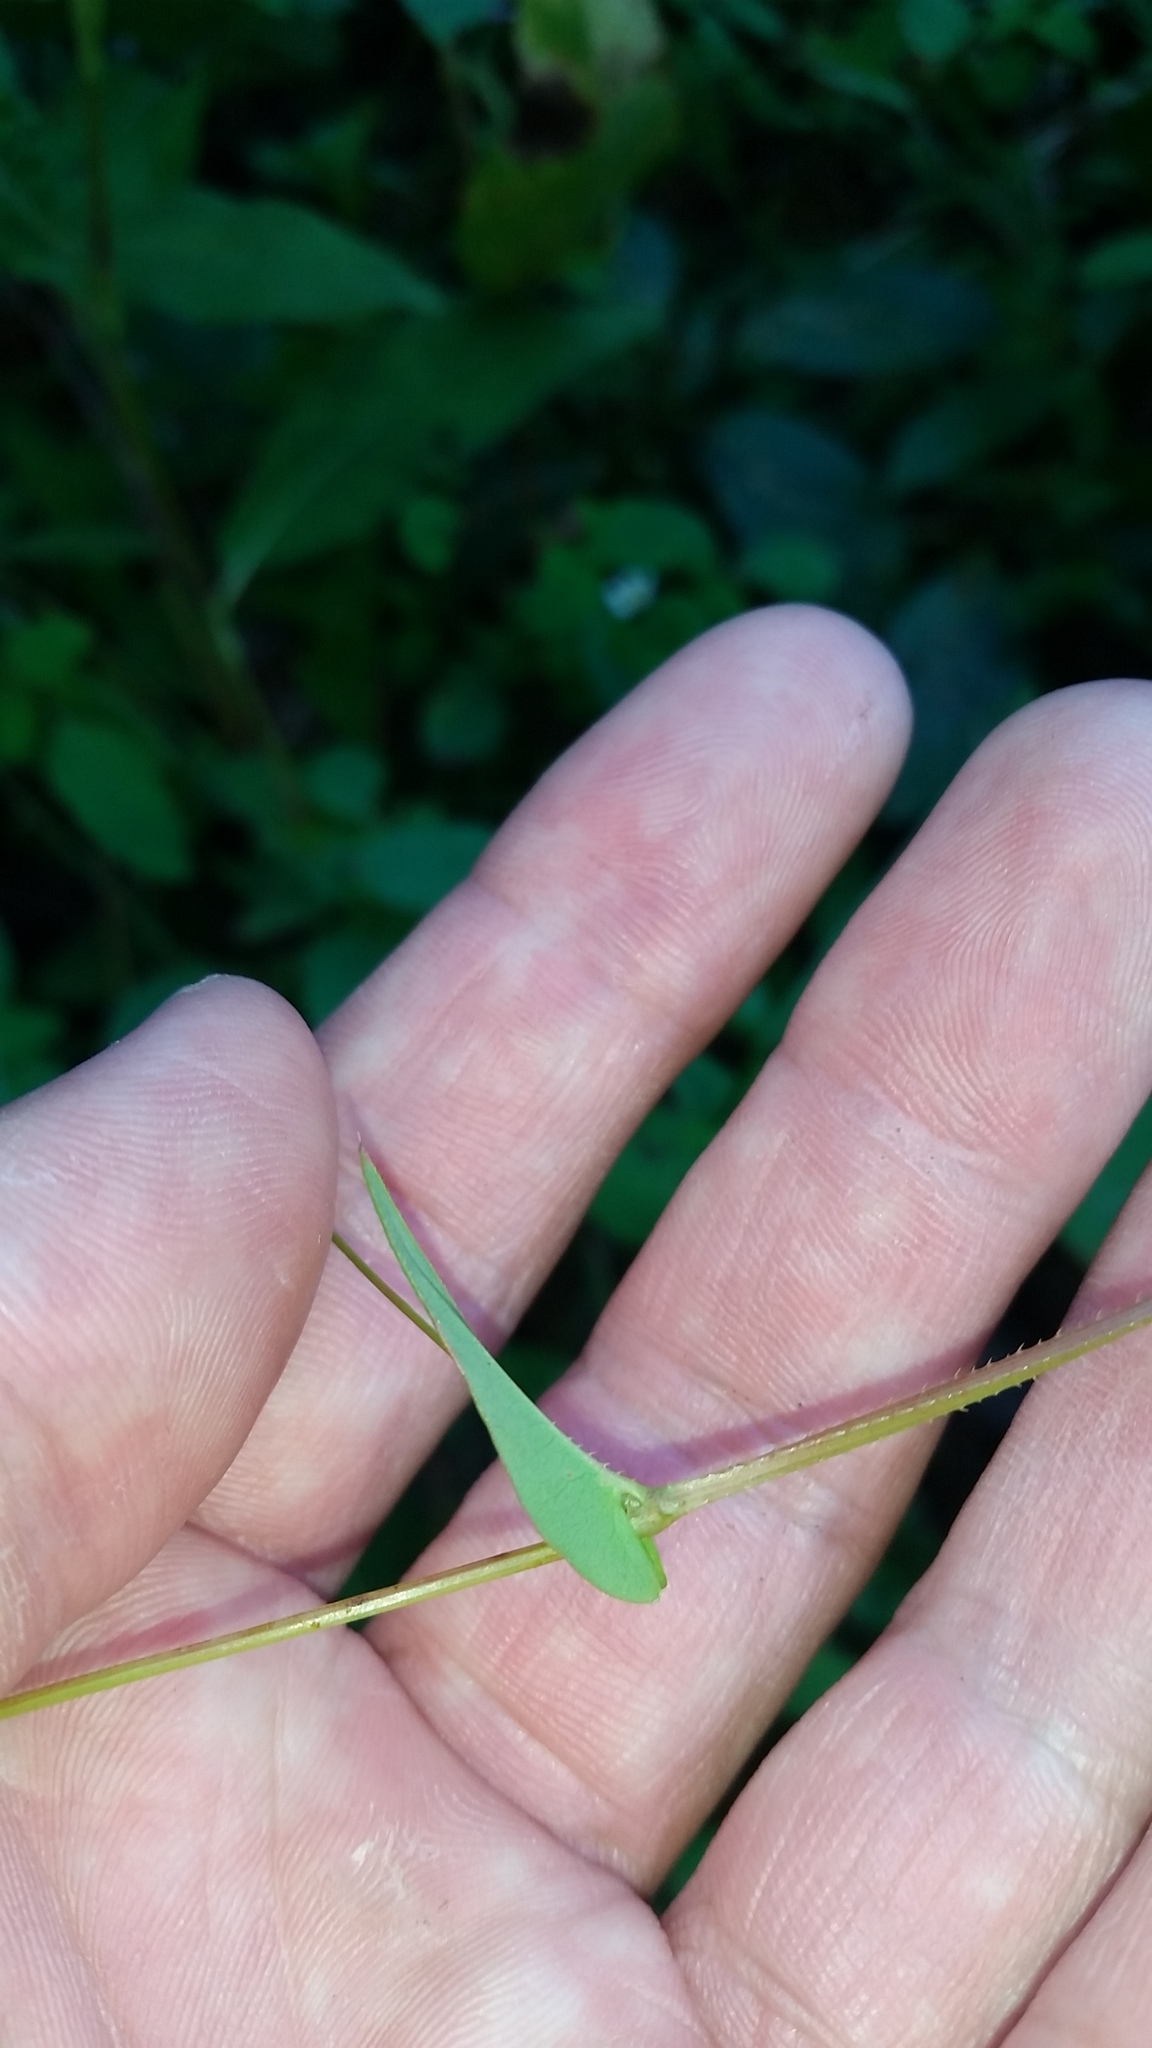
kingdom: Plantae
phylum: Tracheophyta
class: Magnoliopsida
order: Caryophyllales
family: Polygonaceae
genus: Persicaria
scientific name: Persicaria sagittata
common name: American tearthumb
